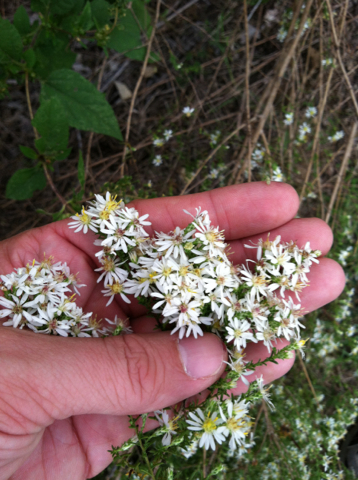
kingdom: Plantae
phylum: Tracheophyta
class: Magnoliopsida
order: Asterales
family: Asteraceae
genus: Symphyotrichum
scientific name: Symphyotrichum ericoides
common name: Heath aster
